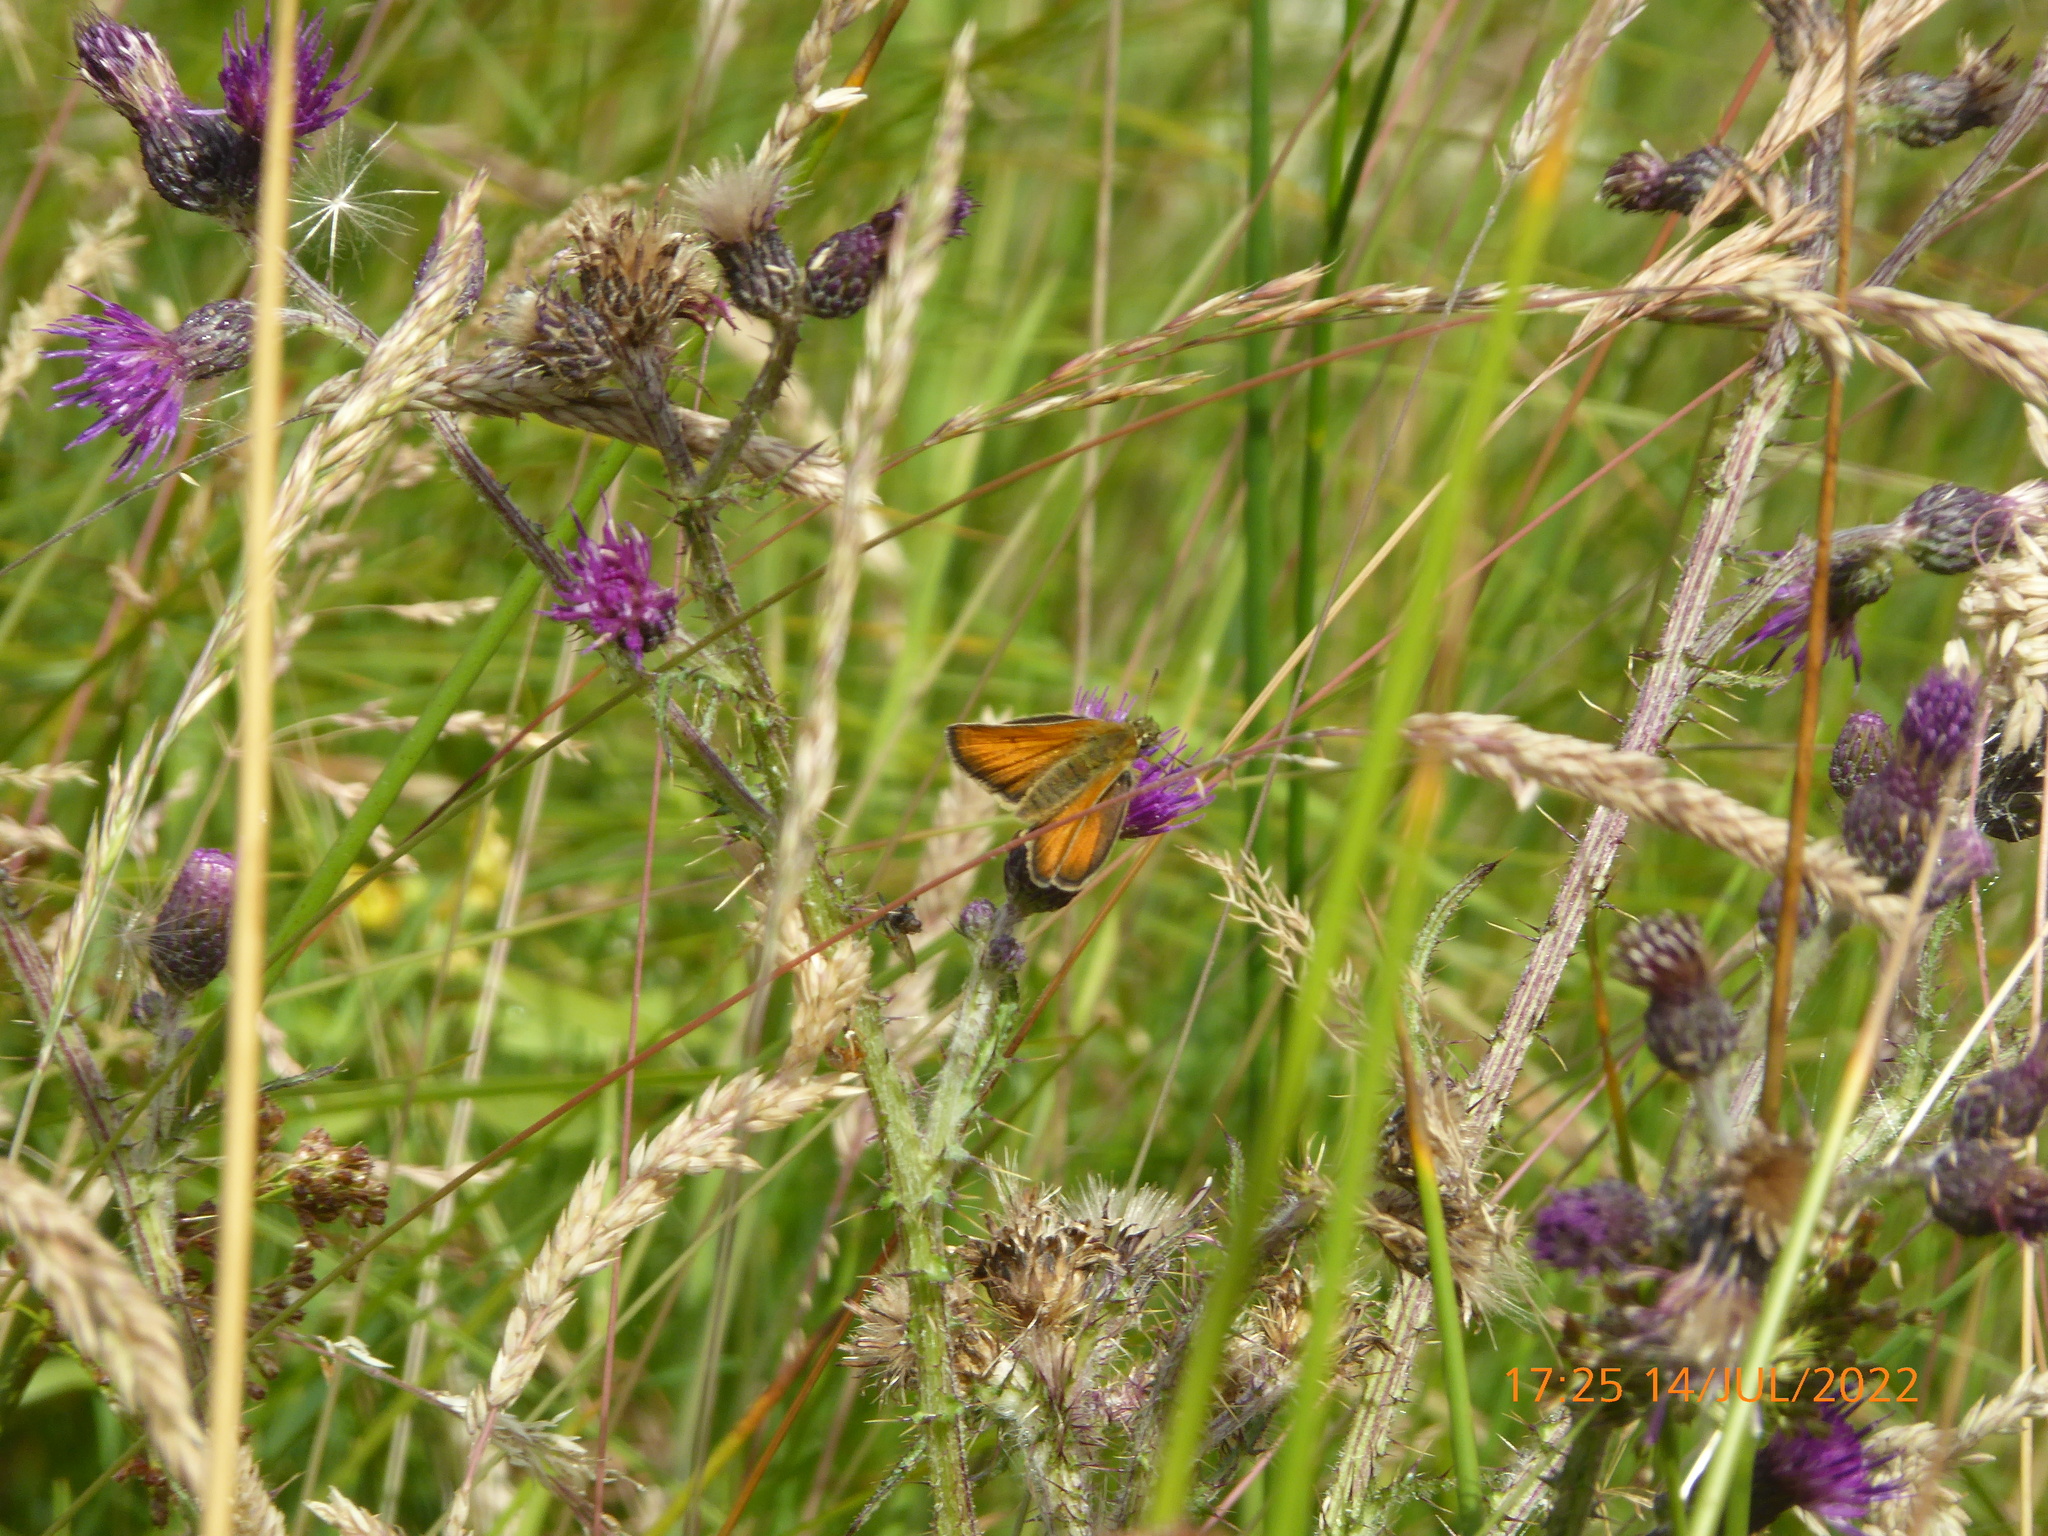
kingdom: Animalia
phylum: Arthropoda
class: Insecta
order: Lepidoptera
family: Hesperiidae
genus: Thymelicus
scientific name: Thymelicus sylvestris
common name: Small skipper
